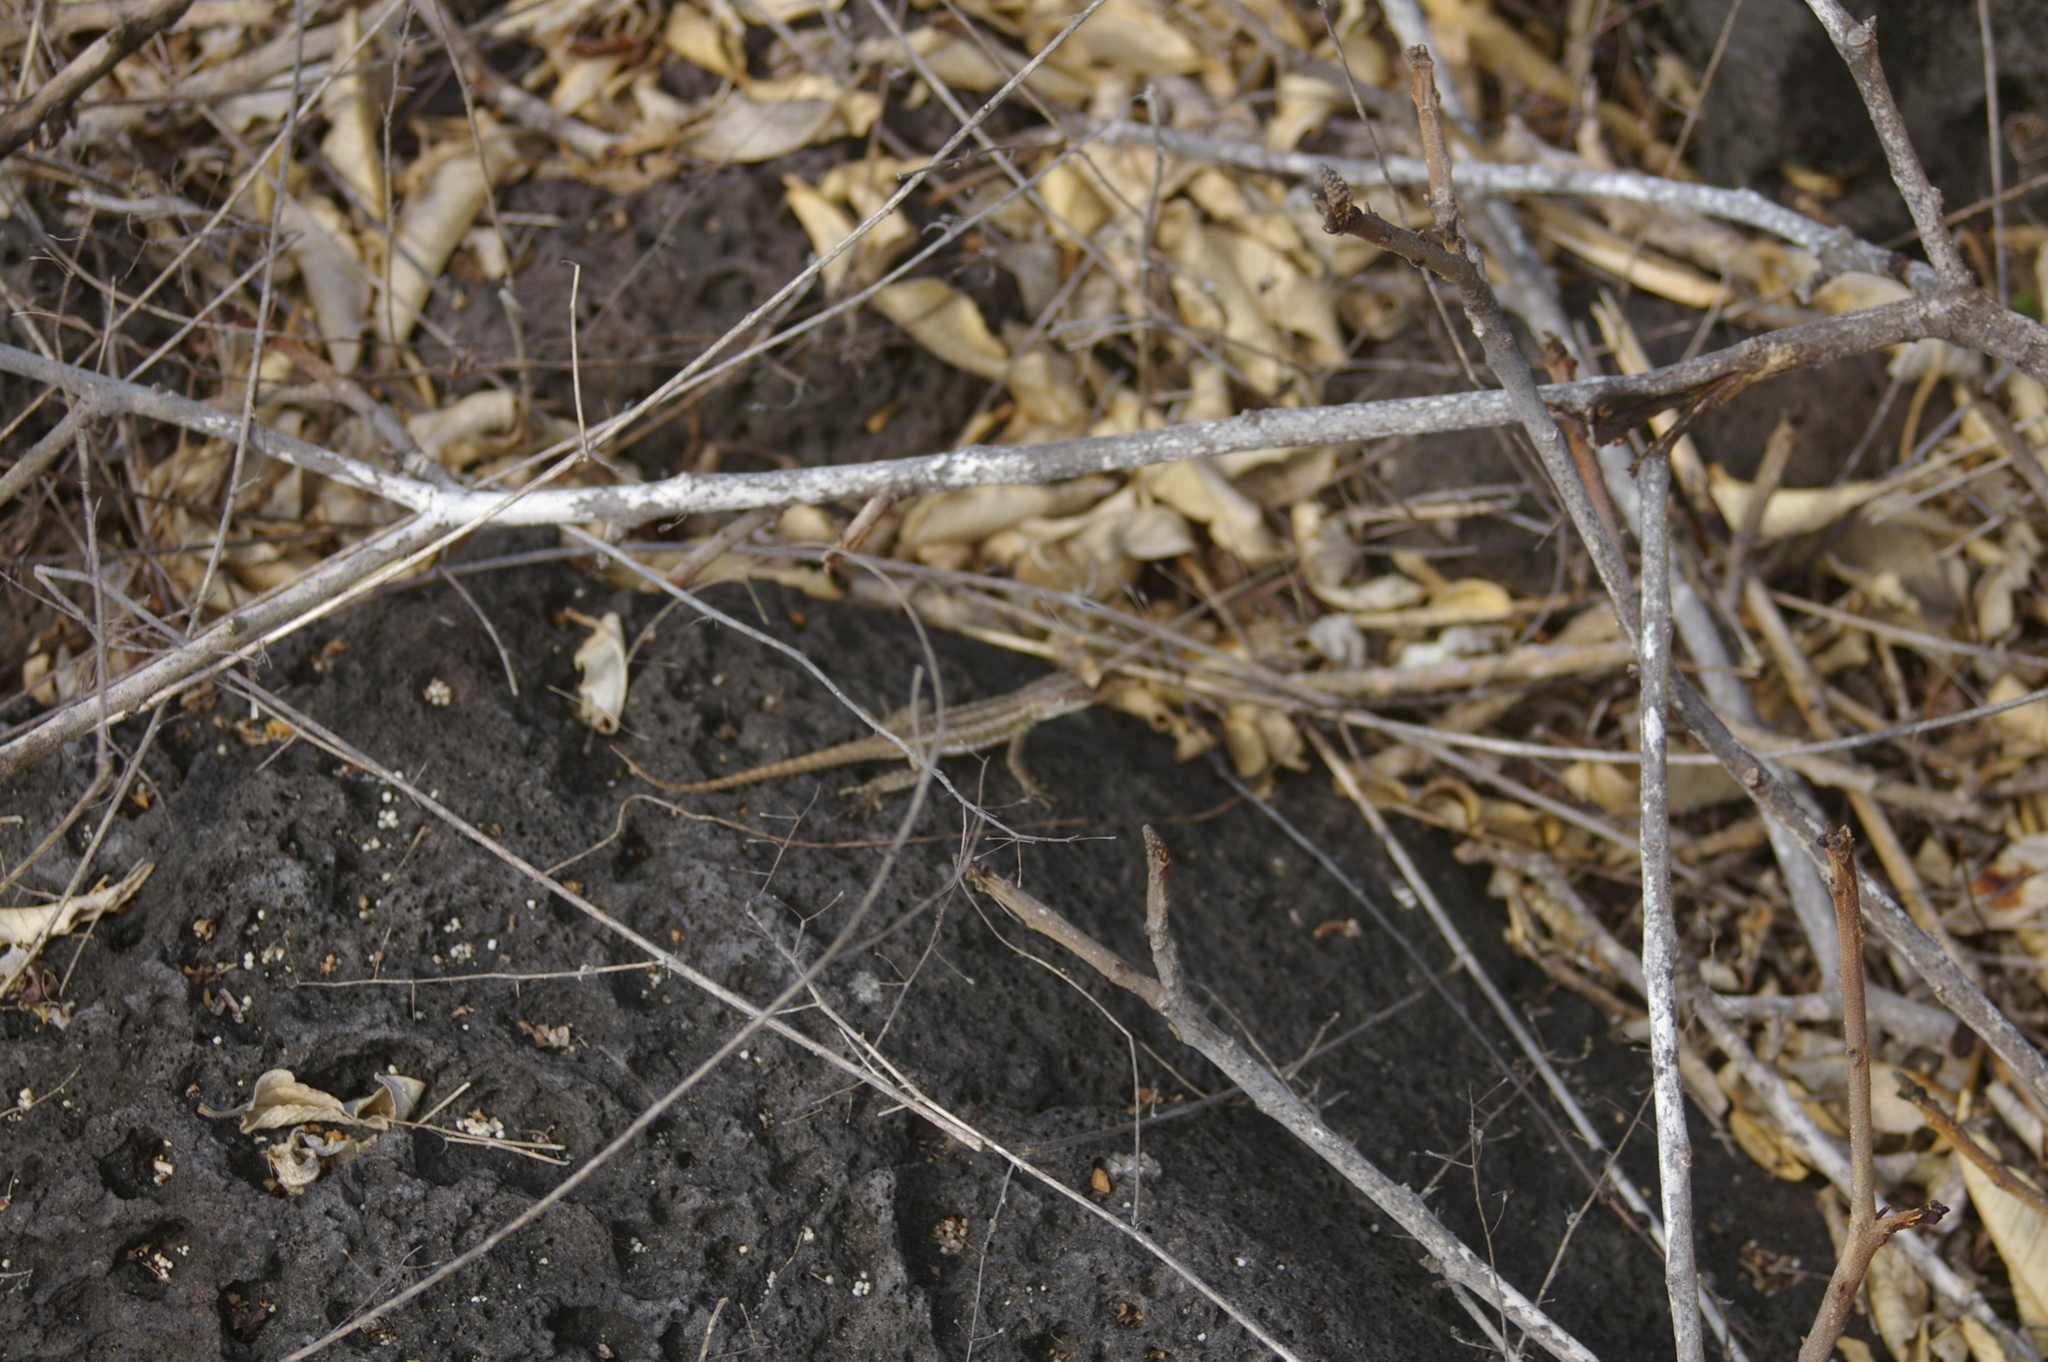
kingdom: Animalia
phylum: Chordata
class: Squamata
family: Tropiduridae
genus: Microlophus
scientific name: Microlophus bivittatus
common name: San cristobal lava lizard
